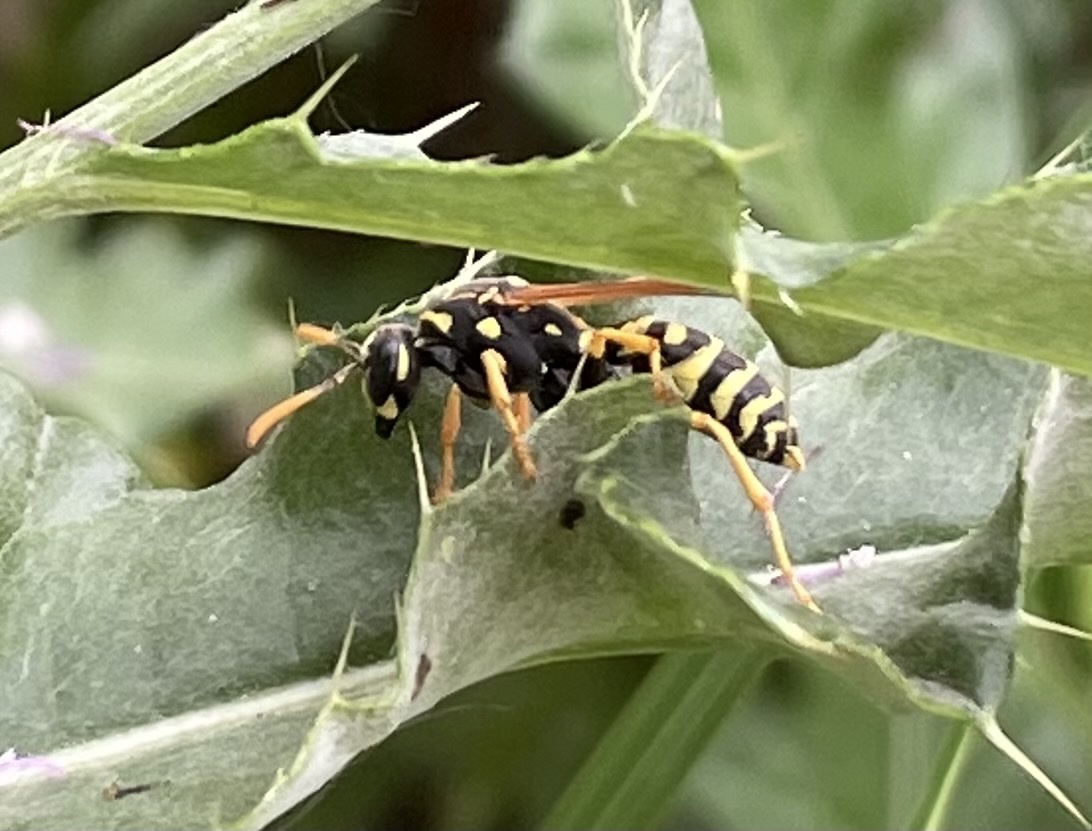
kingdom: Animalia
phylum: Arthropoda
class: Insecta
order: Hymenoptera
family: Eumenidae
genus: Polistes
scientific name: Polistes dominula
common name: Paper wasp
